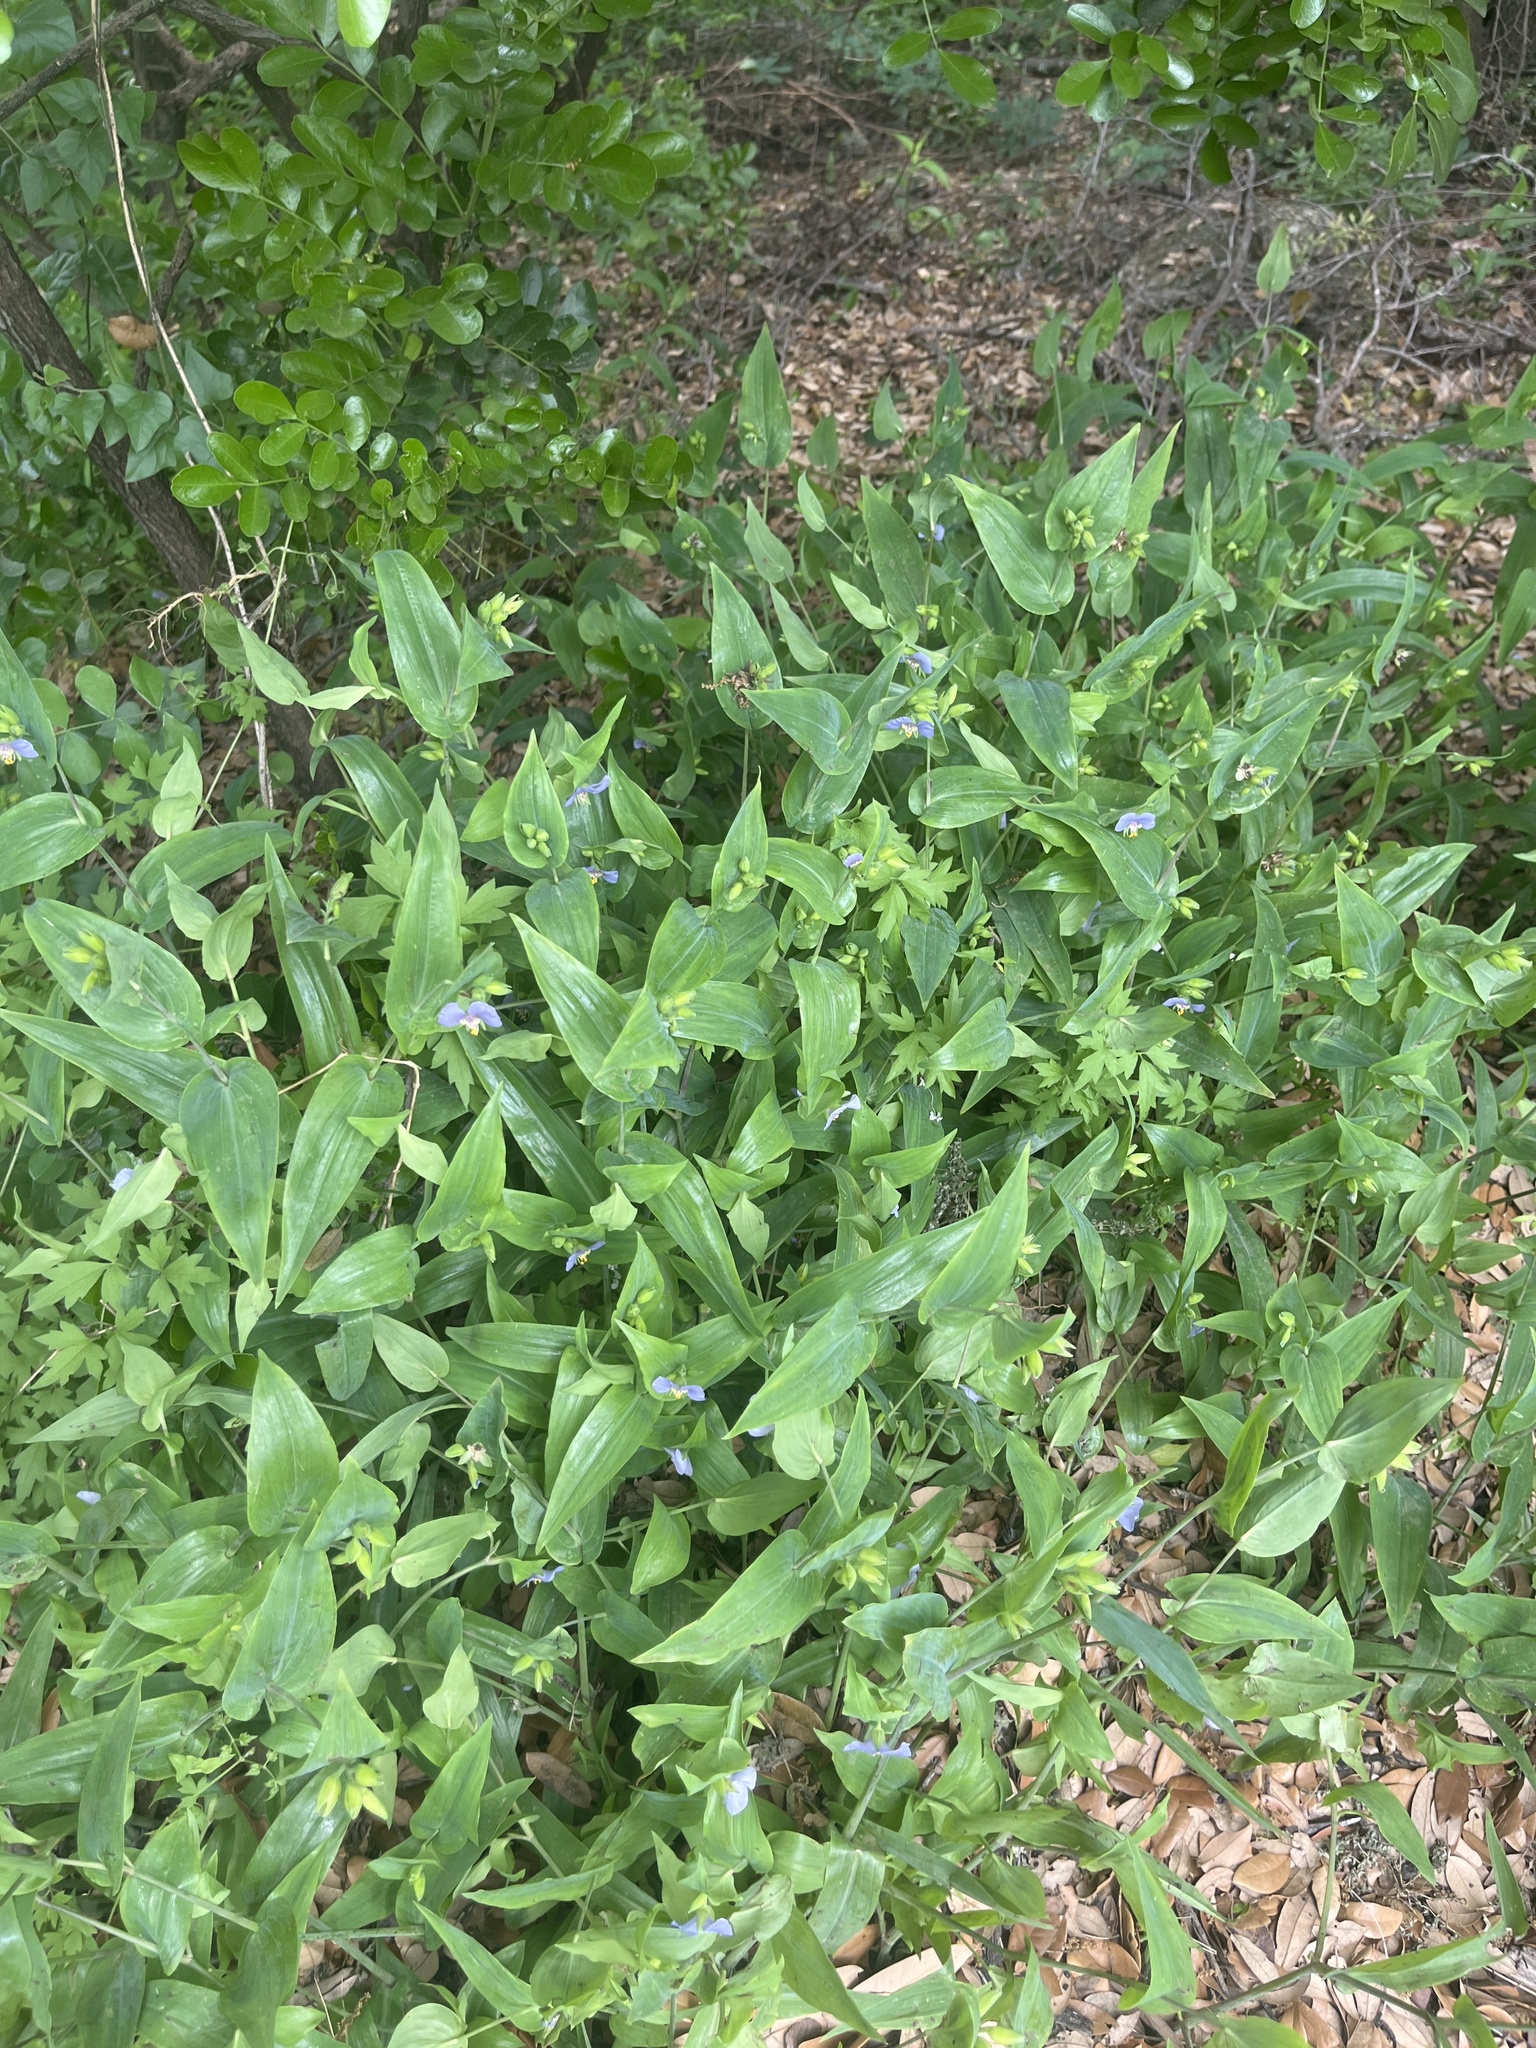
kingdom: Plantae
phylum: Tracheophyta
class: Liliopsida
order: Commelinales
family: Commelinaceae
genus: Tinantia
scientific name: Tinantia anomala
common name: False dayflower
